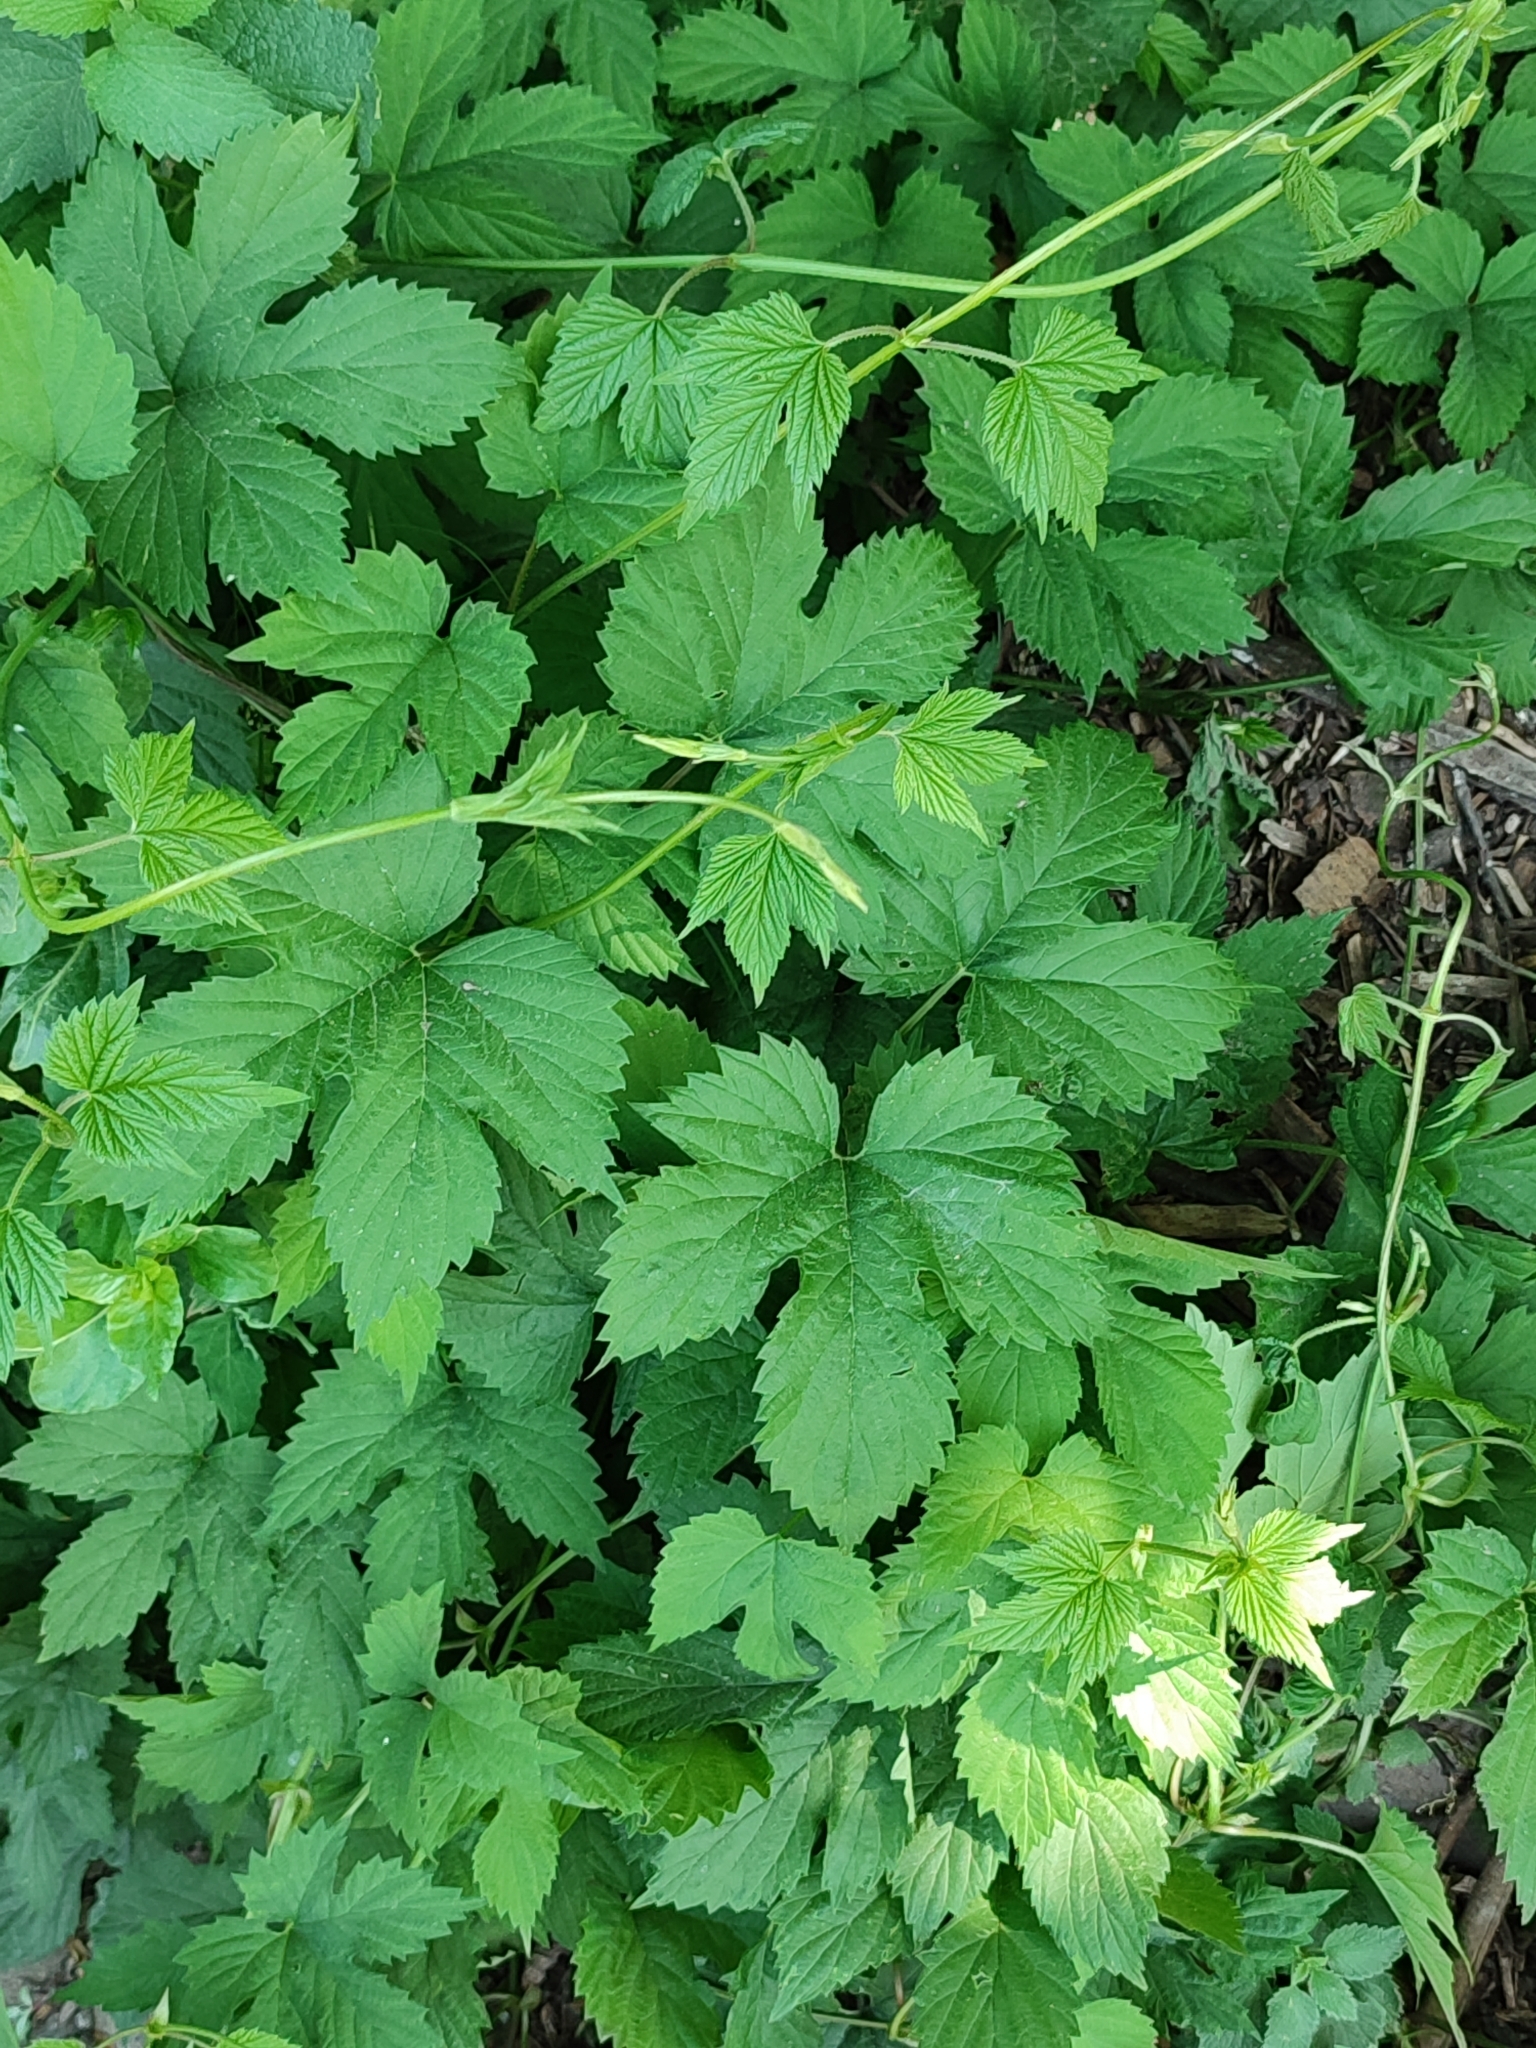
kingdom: Plantae
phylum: Tracheophyta
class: Magnoliopsida
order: Rosales
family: Cannabaceae
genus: Humulus
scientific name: Humulus lupulus
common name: Hop
